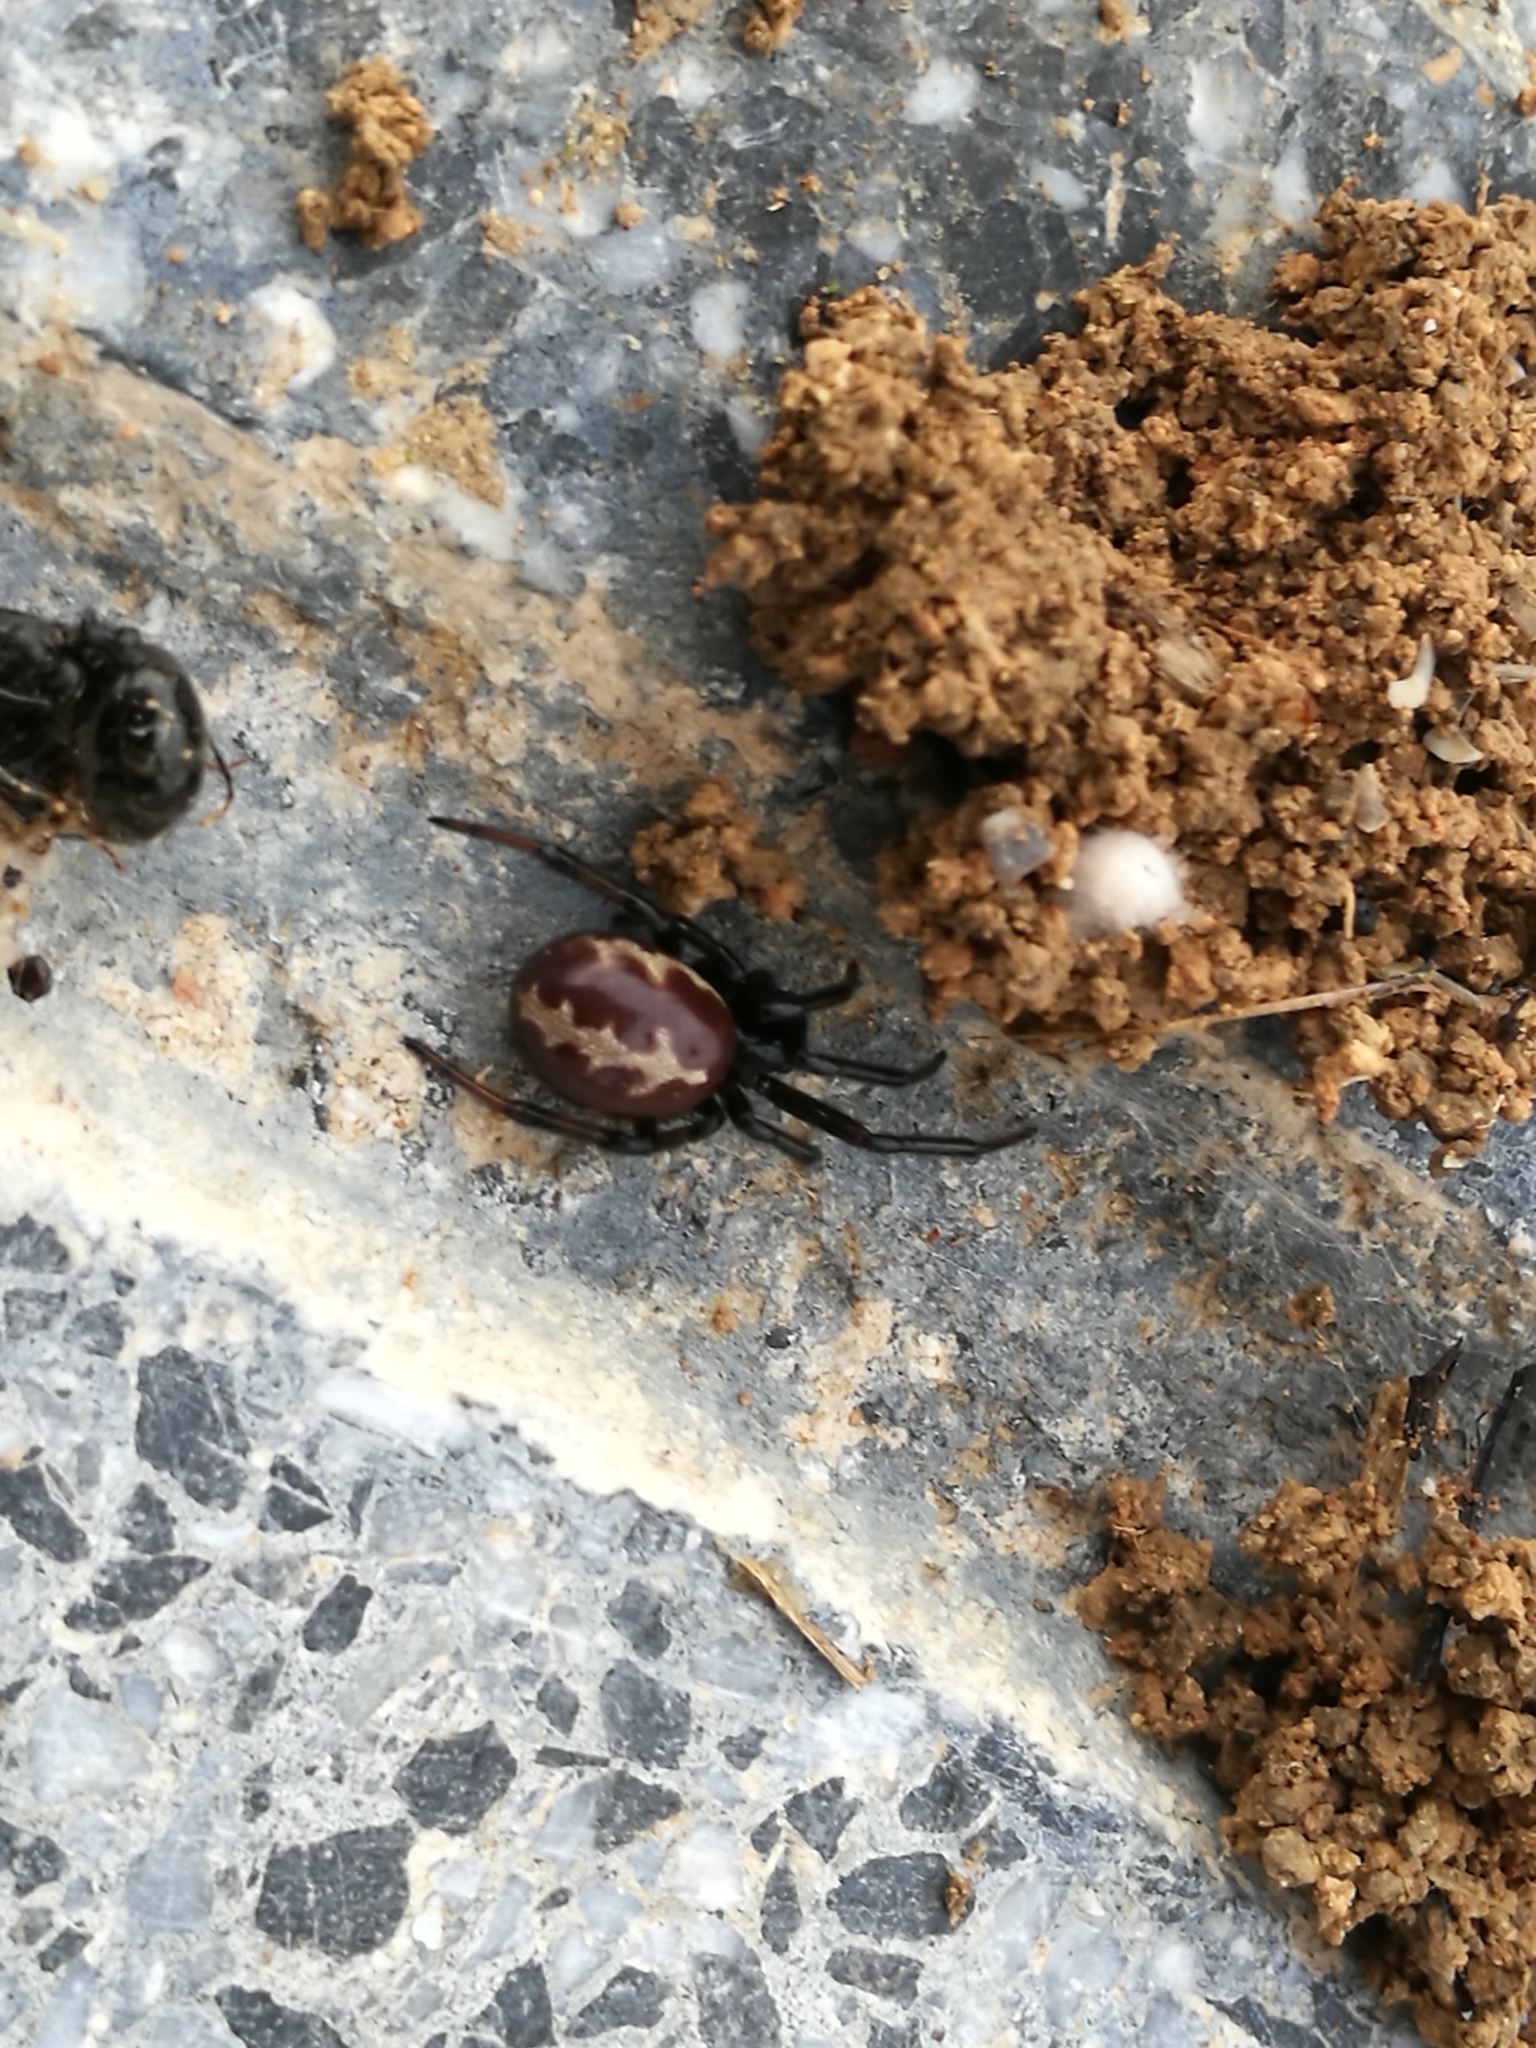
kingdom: Animalia
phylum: Arthropoda
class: Arachnida
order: Araneae
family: Theridiidae
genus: Steatoda
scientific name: Steatoda paykulliana
